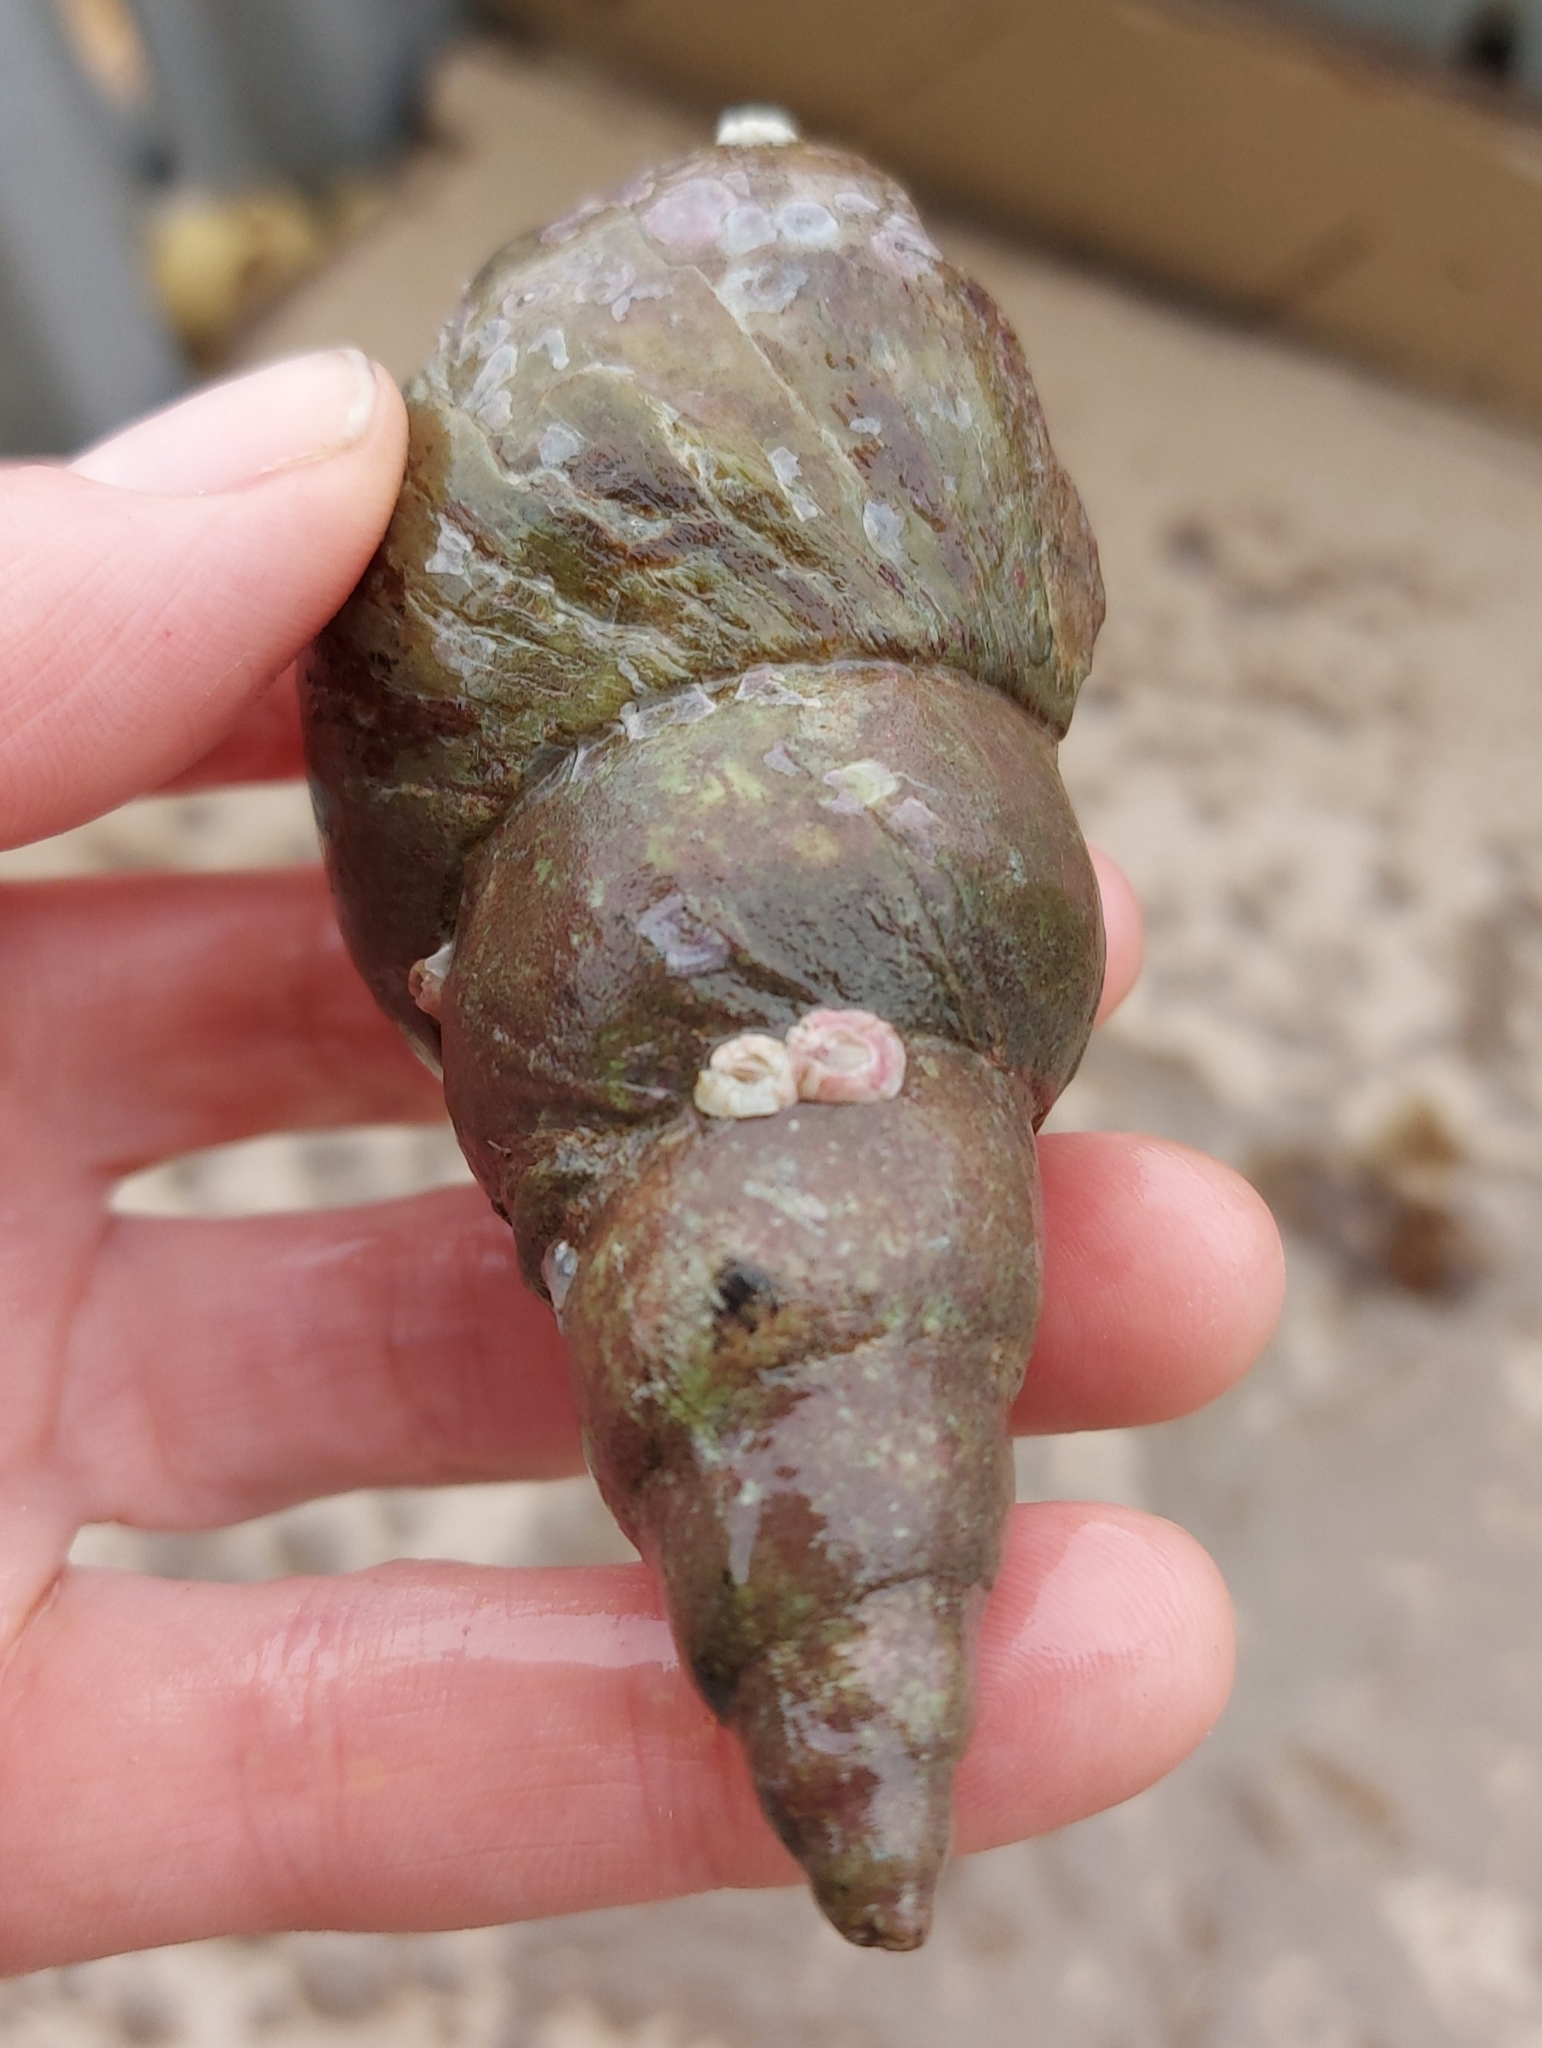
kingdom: Animalia
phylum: Mollusca
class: Gastropoda
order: Neogastropoda
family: Colidae
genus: Colus
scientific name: Colus stimpsoni
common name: Stimpson's colus
